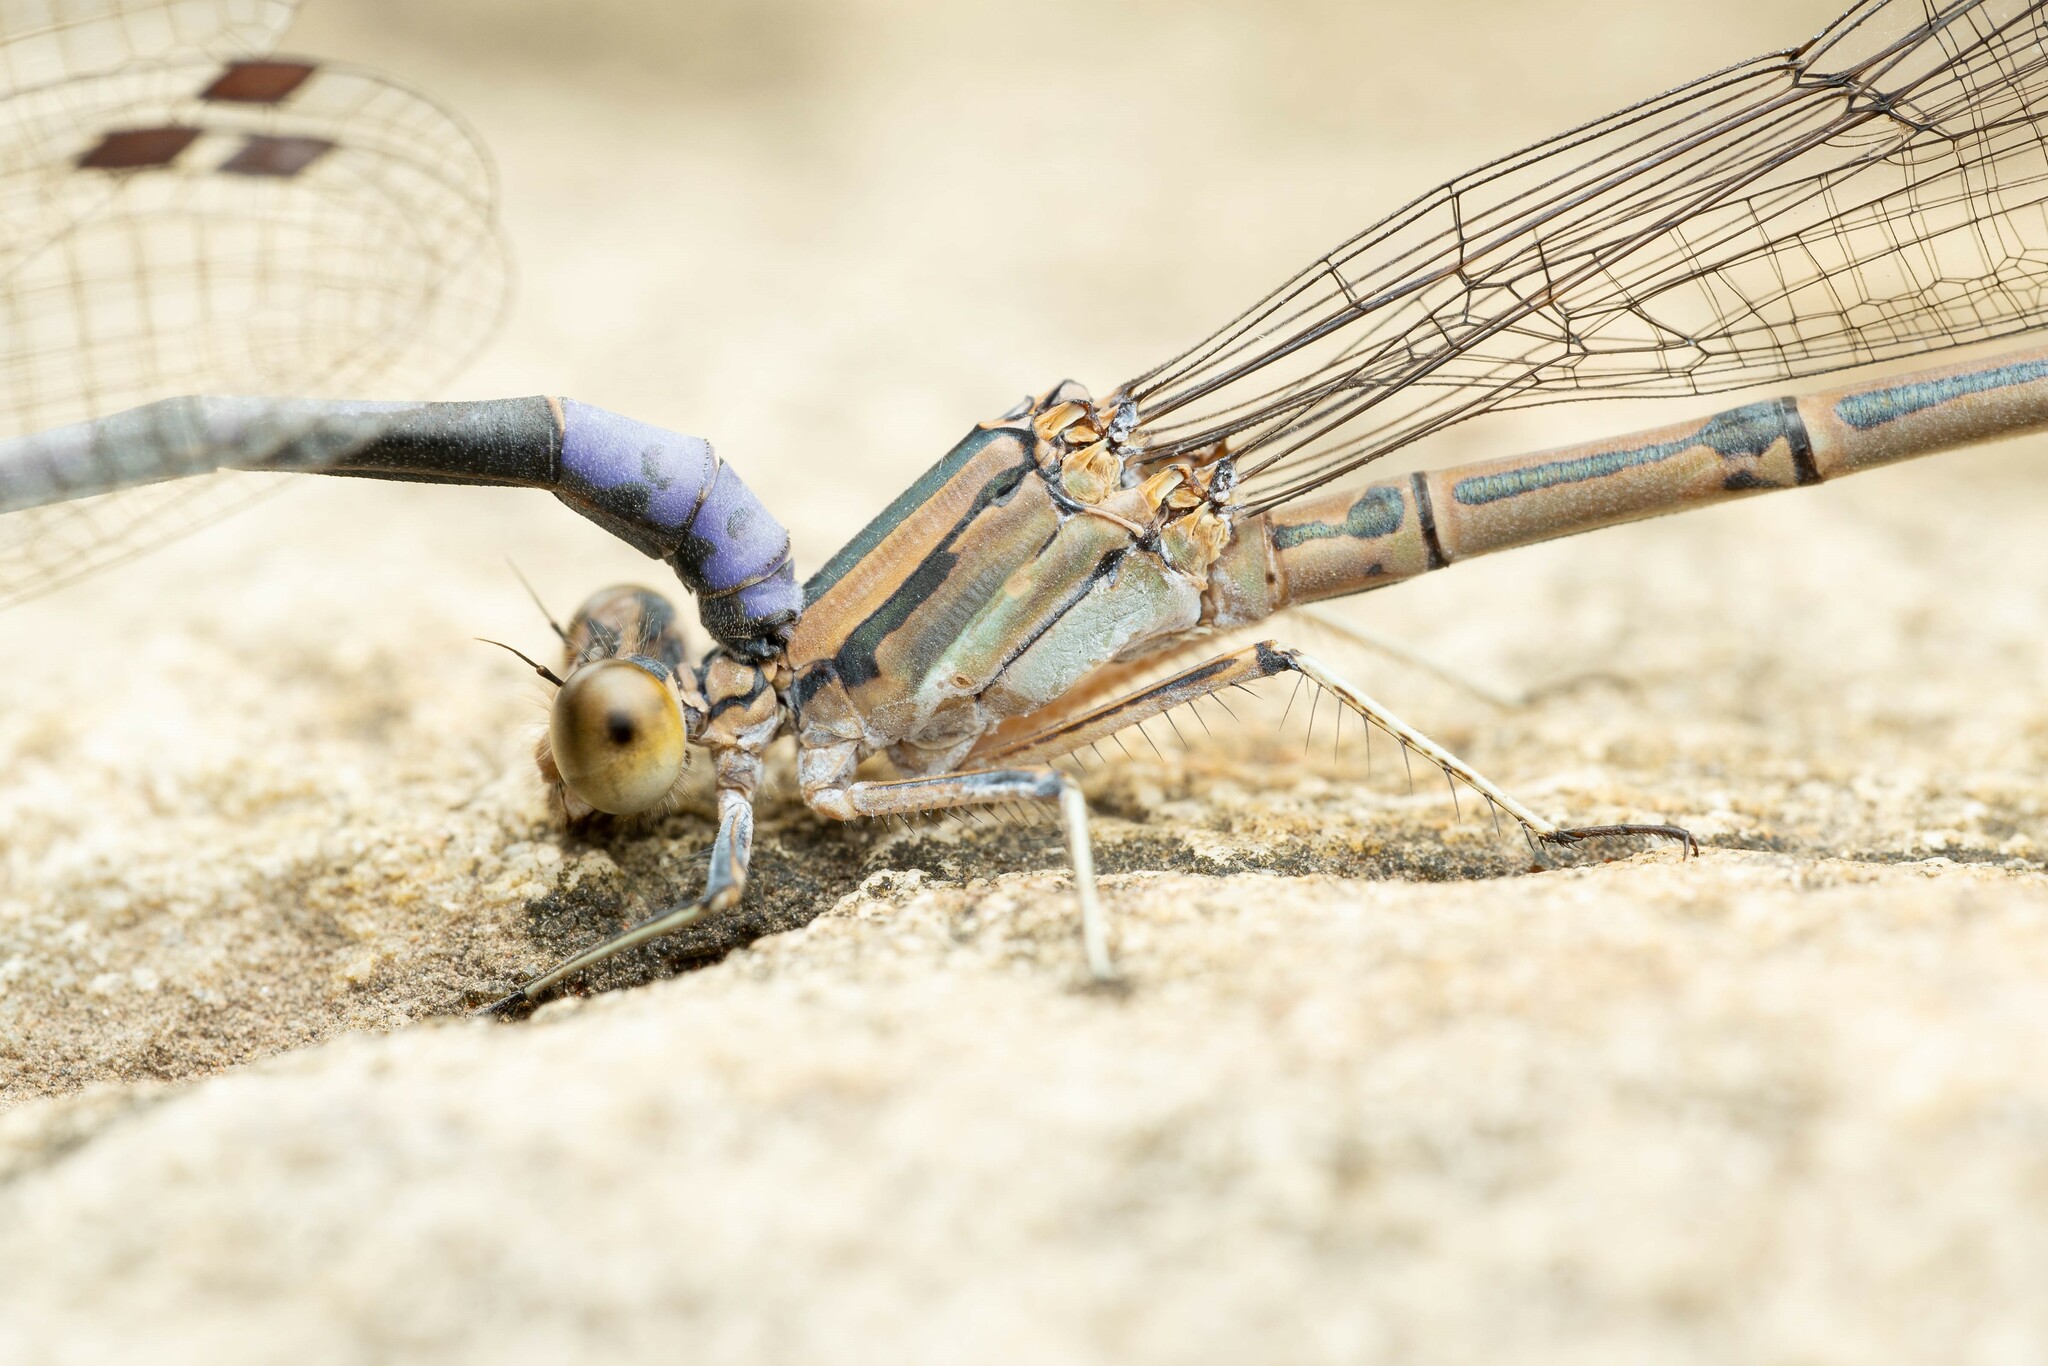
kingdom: Animalia
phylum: Arthropoda
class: Insecta
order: Odonata
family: Coenagrionidae
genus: Argia
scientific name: Argia tonto
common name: Tonto dancer
